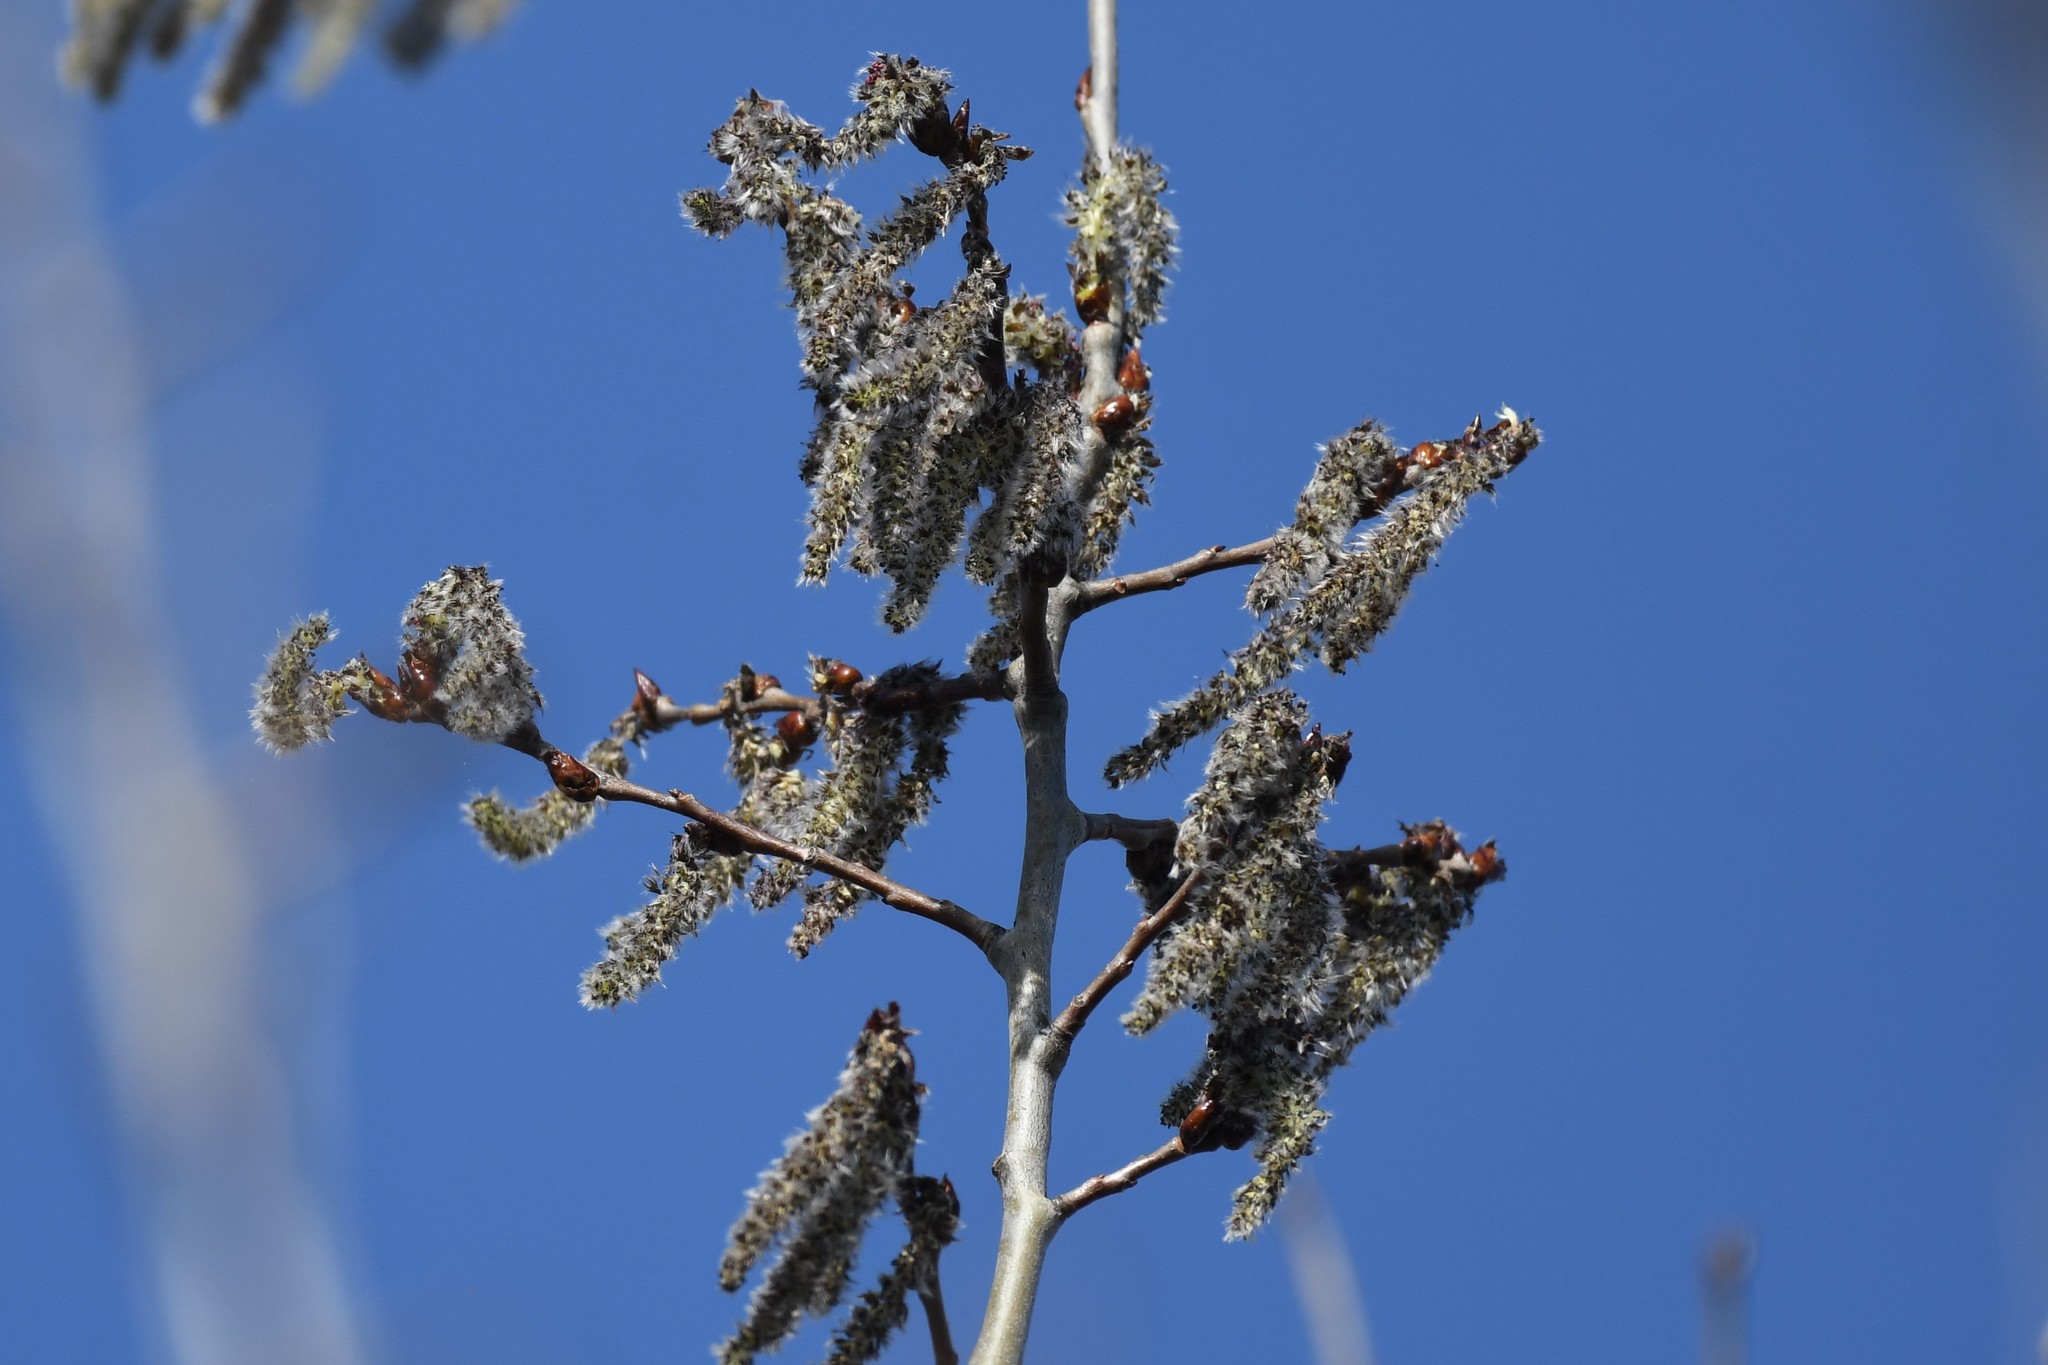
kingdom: Plantae
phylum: Tracheophyta
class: Magnoliopsida
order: Malpighiales
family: Salicaceae
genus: Populus
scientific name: Populus tremuloides
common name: Quaking aspen
